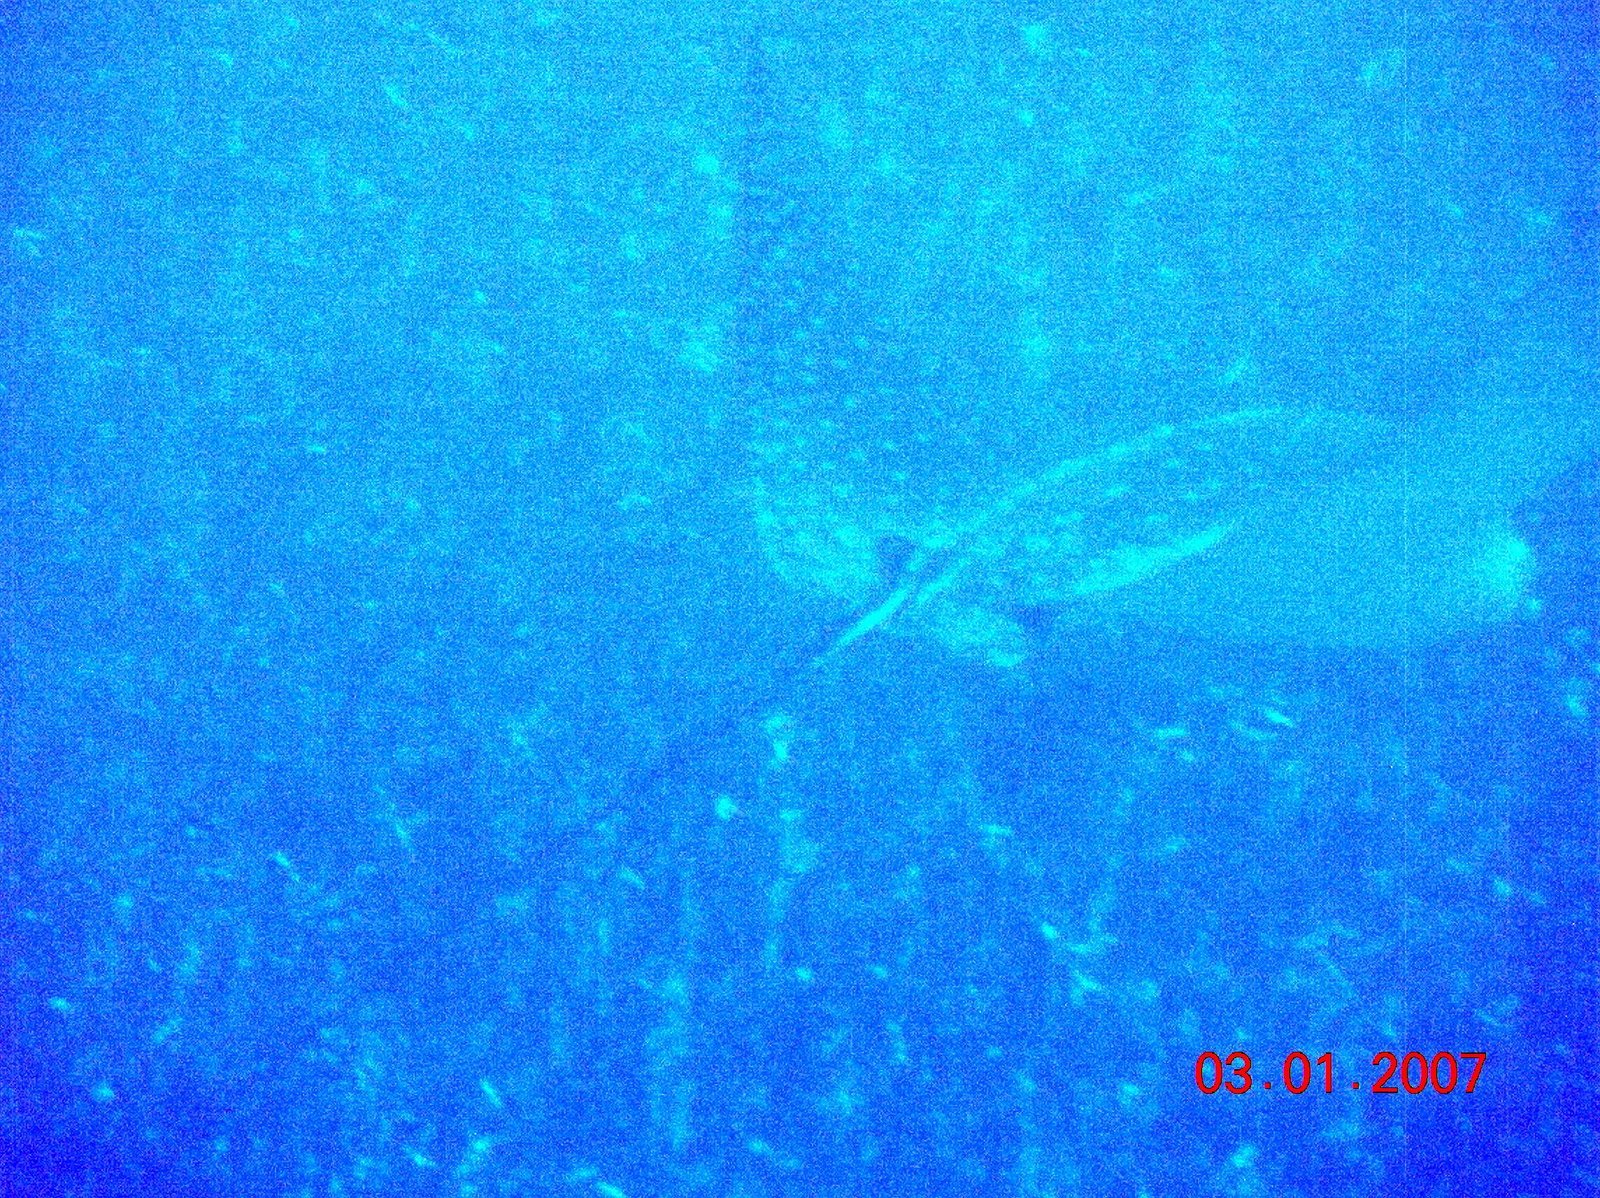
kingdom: Animalia
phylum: Chordata
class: Elasmobranchii
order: Myliobatiformes
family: Myliobatidae
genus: Aetobatus
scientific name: Aetobatus ocellatus
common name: Ocellated eagle ray
